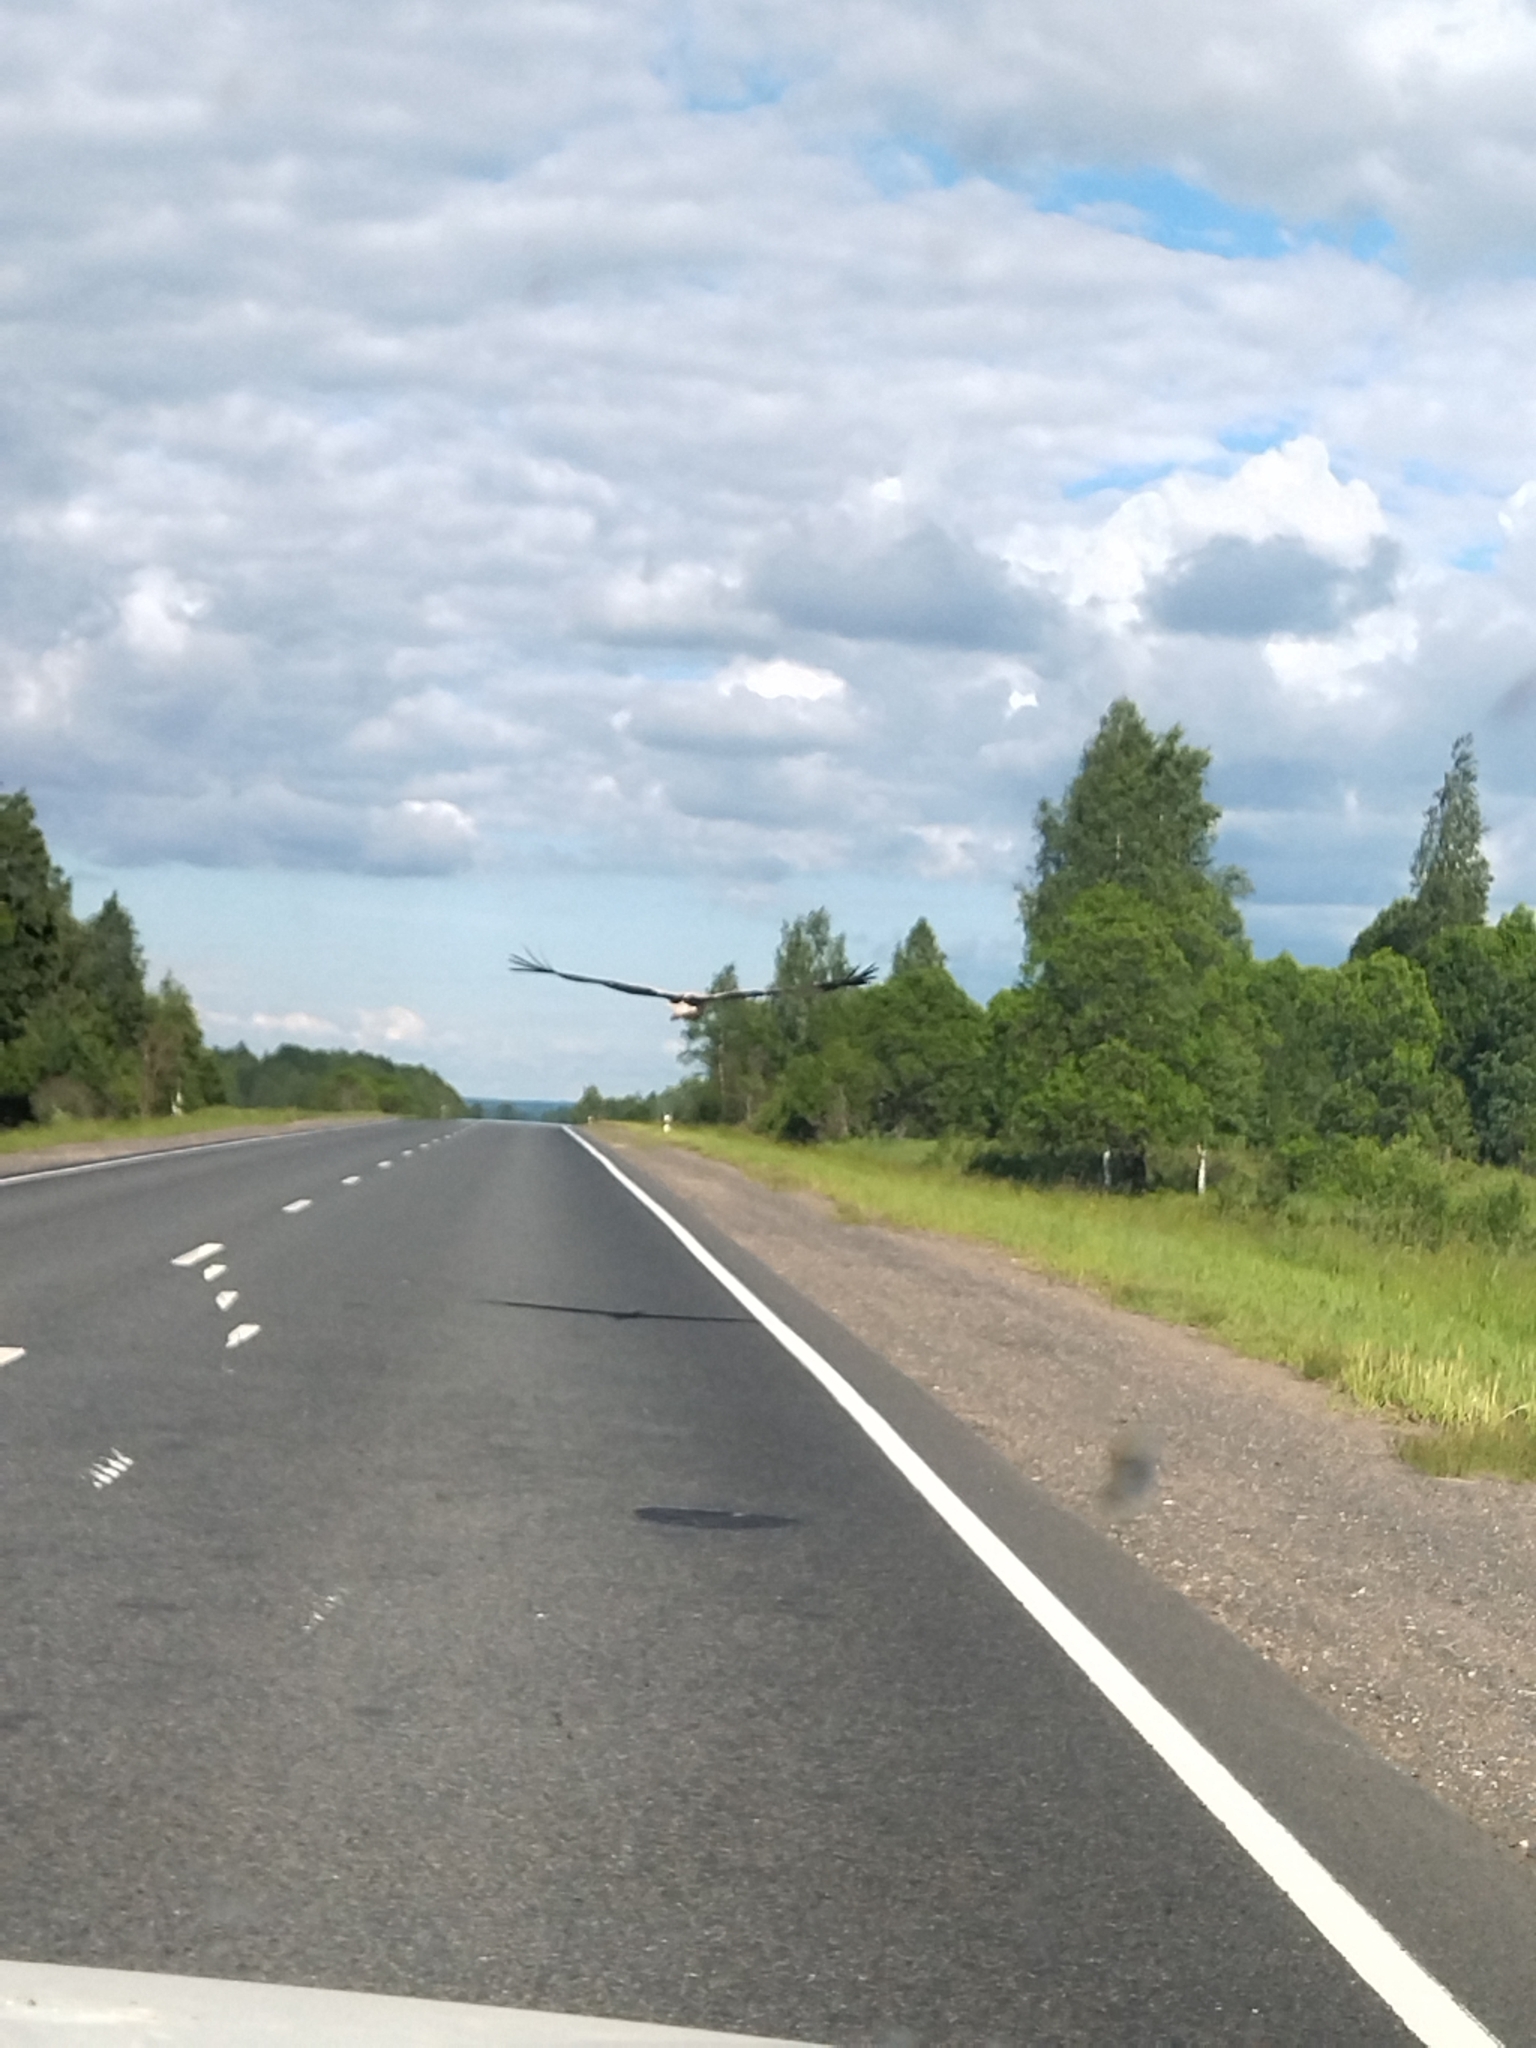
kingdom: Animalia
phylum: Chordata
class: Aves
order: Ciconiiformes
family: Ciconiidae
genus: Ciconia
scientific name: Ciconia ciconia
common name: White stork
